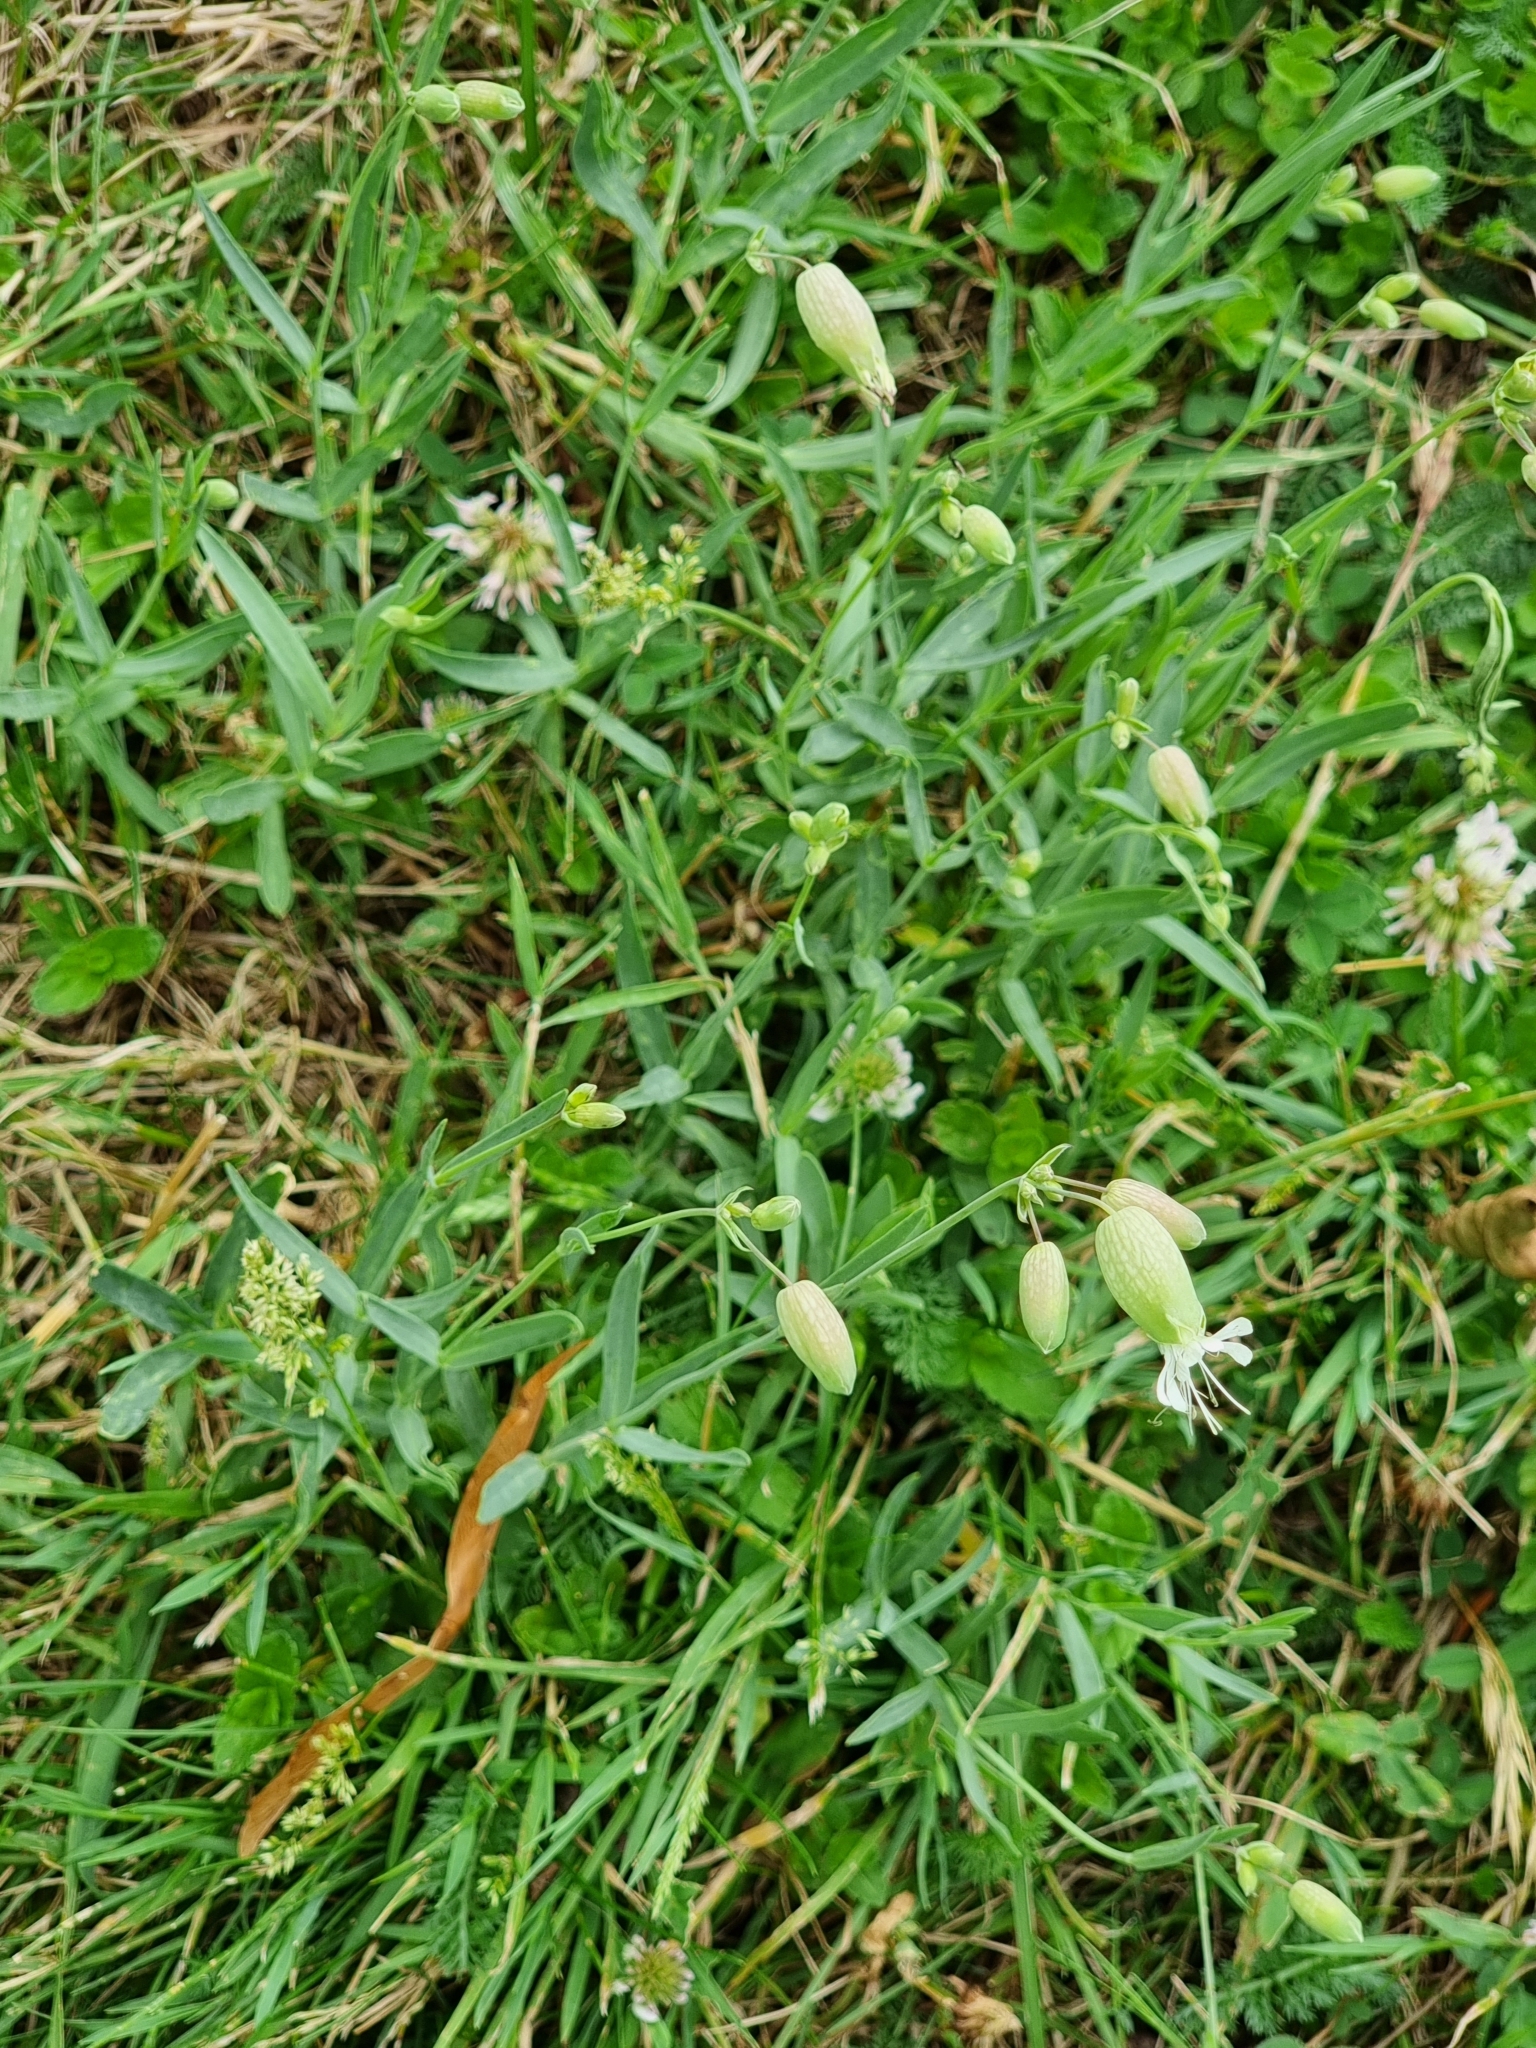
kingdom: Plantae
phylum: Tracheophyta
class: Magnoliopsida
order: Caryophyllales
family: Caryophyllaceae
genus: Silene
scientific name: Silene vulgaris
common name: Bladder campion
